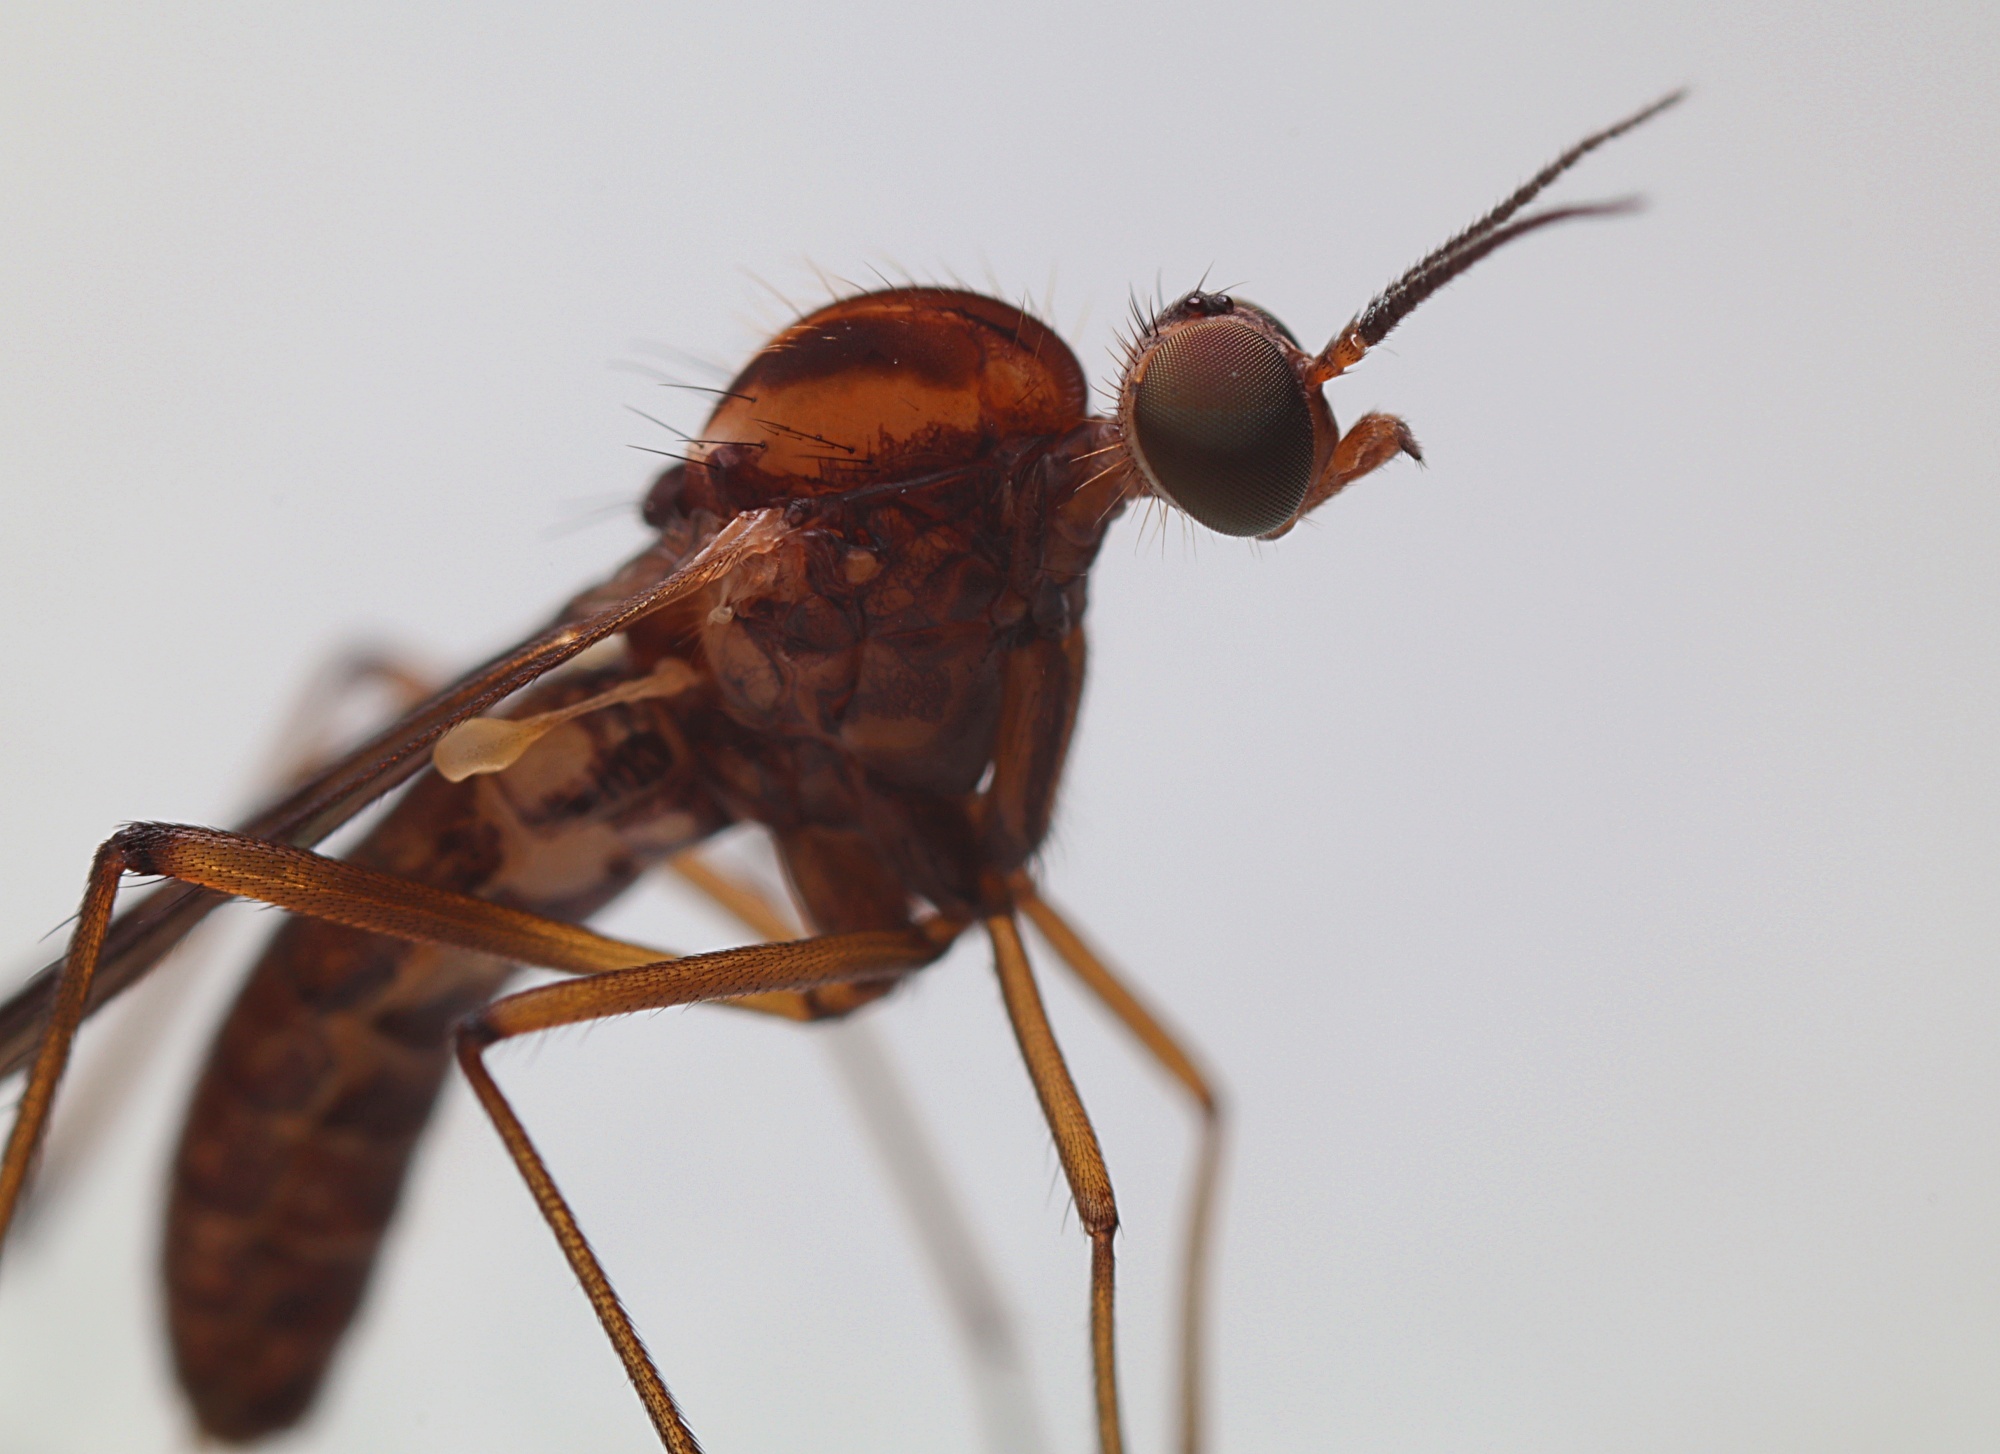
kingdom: Animalia
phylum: Arthropoda
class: Insecta
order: Diptera
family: Anisopodidae
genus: Sylvicola
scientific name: Sylvicola notatus
